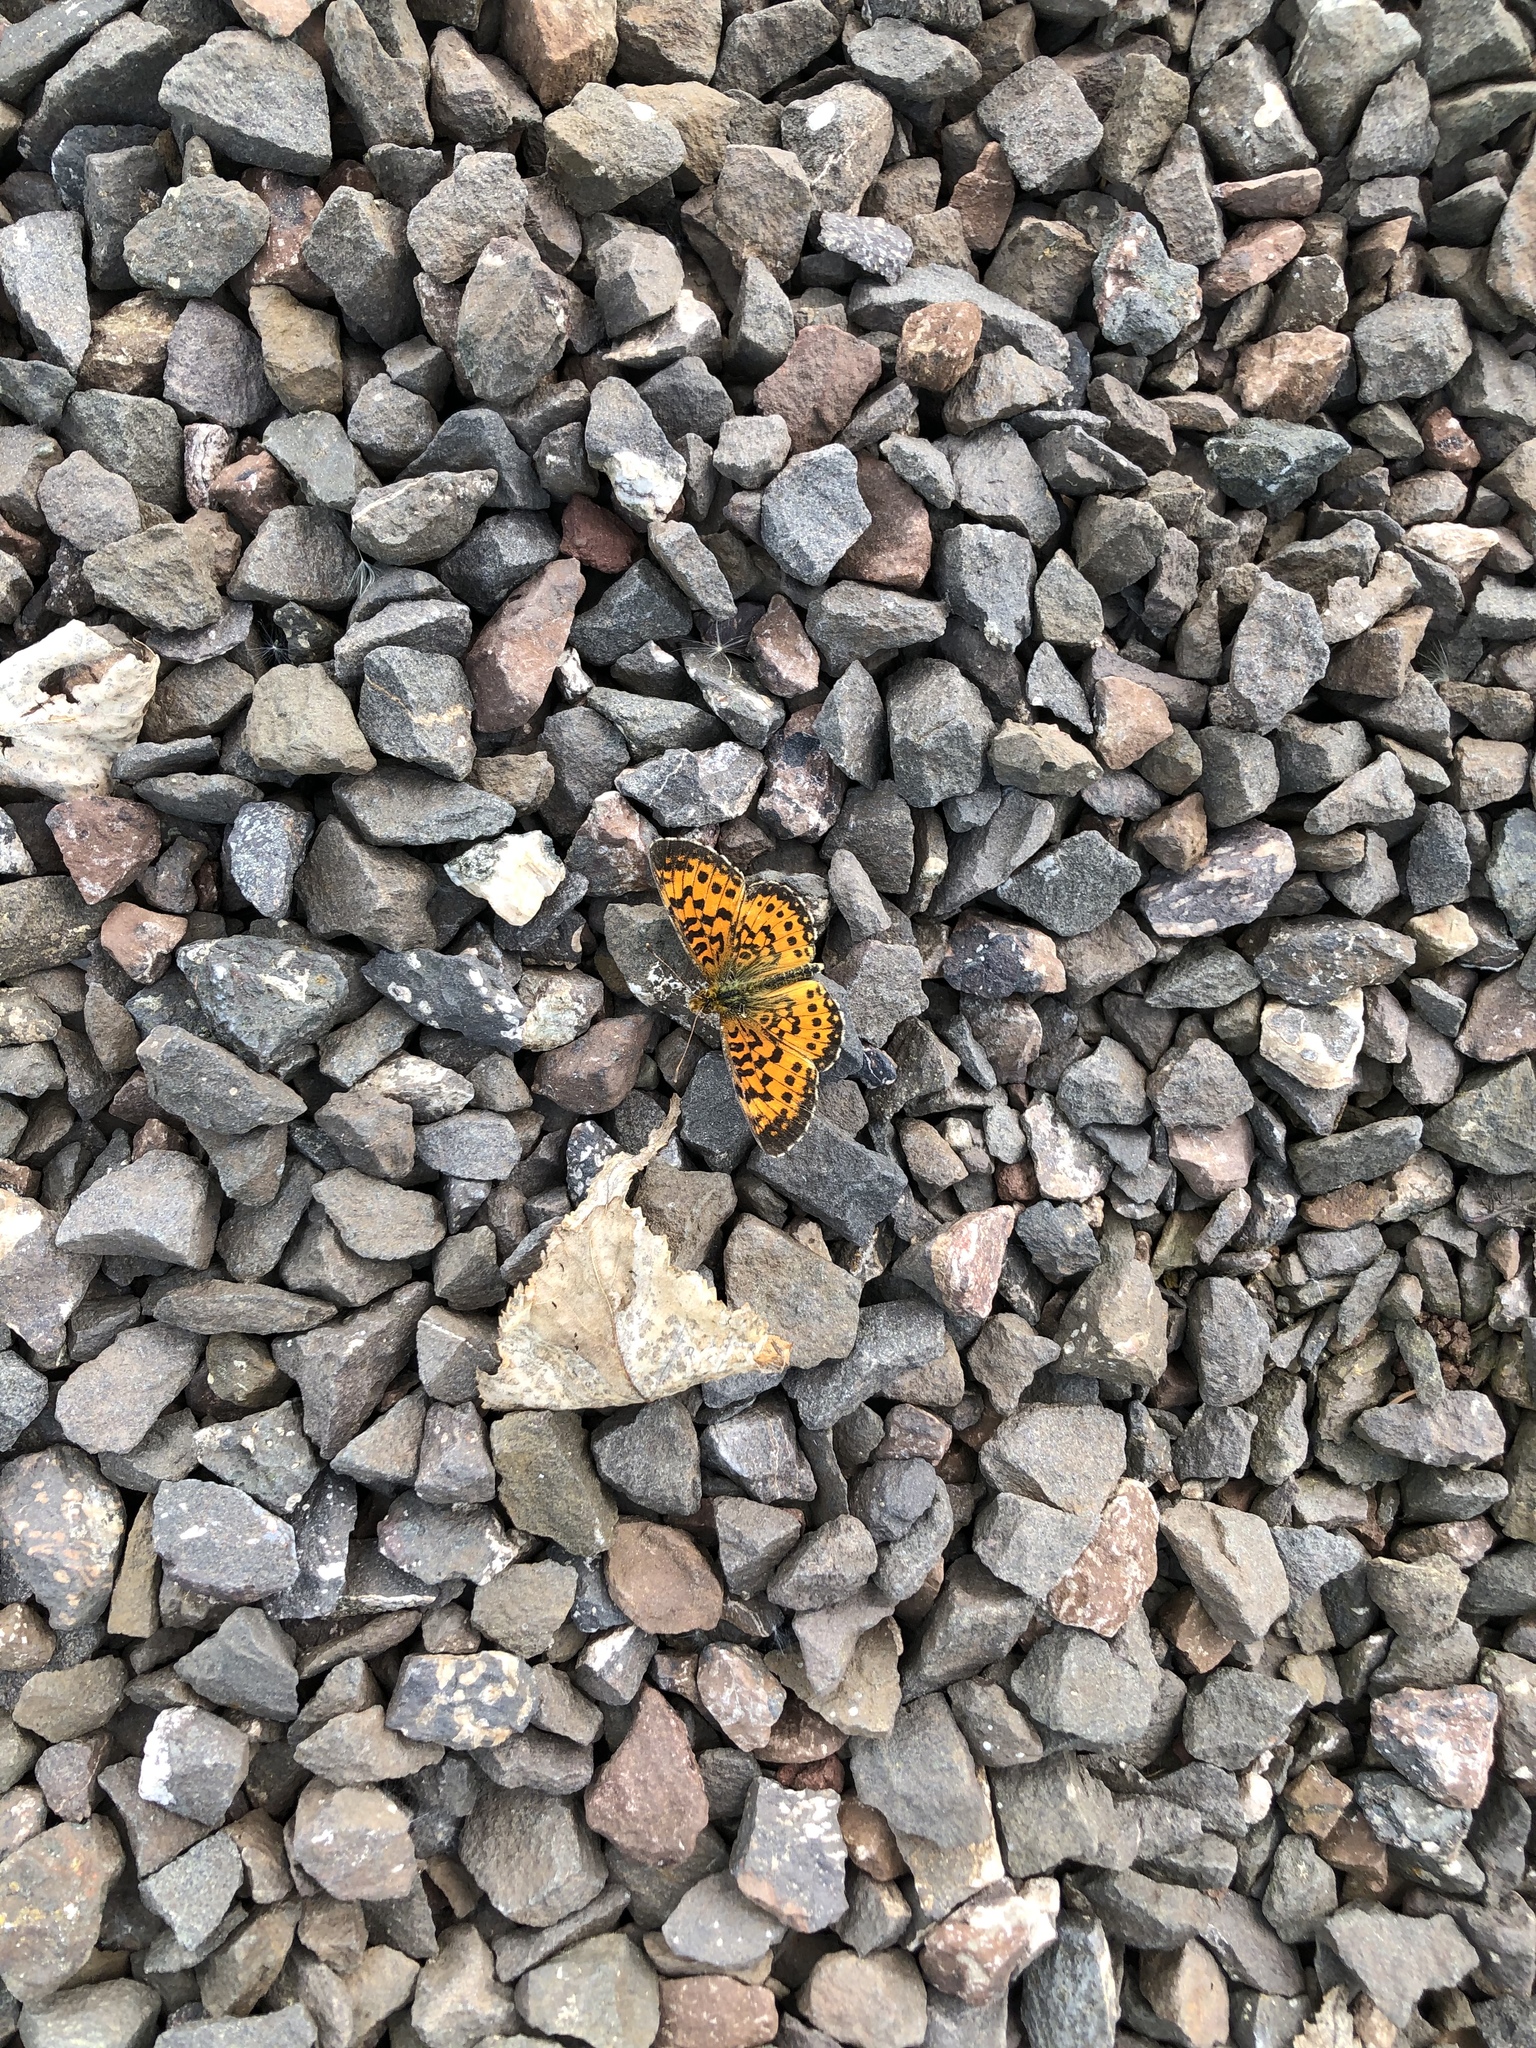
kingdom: Animalia
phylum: Arthropoda
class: Insecta
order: Lepidoptera
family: Nymphalidae
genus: Boloria
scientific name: Boloria
